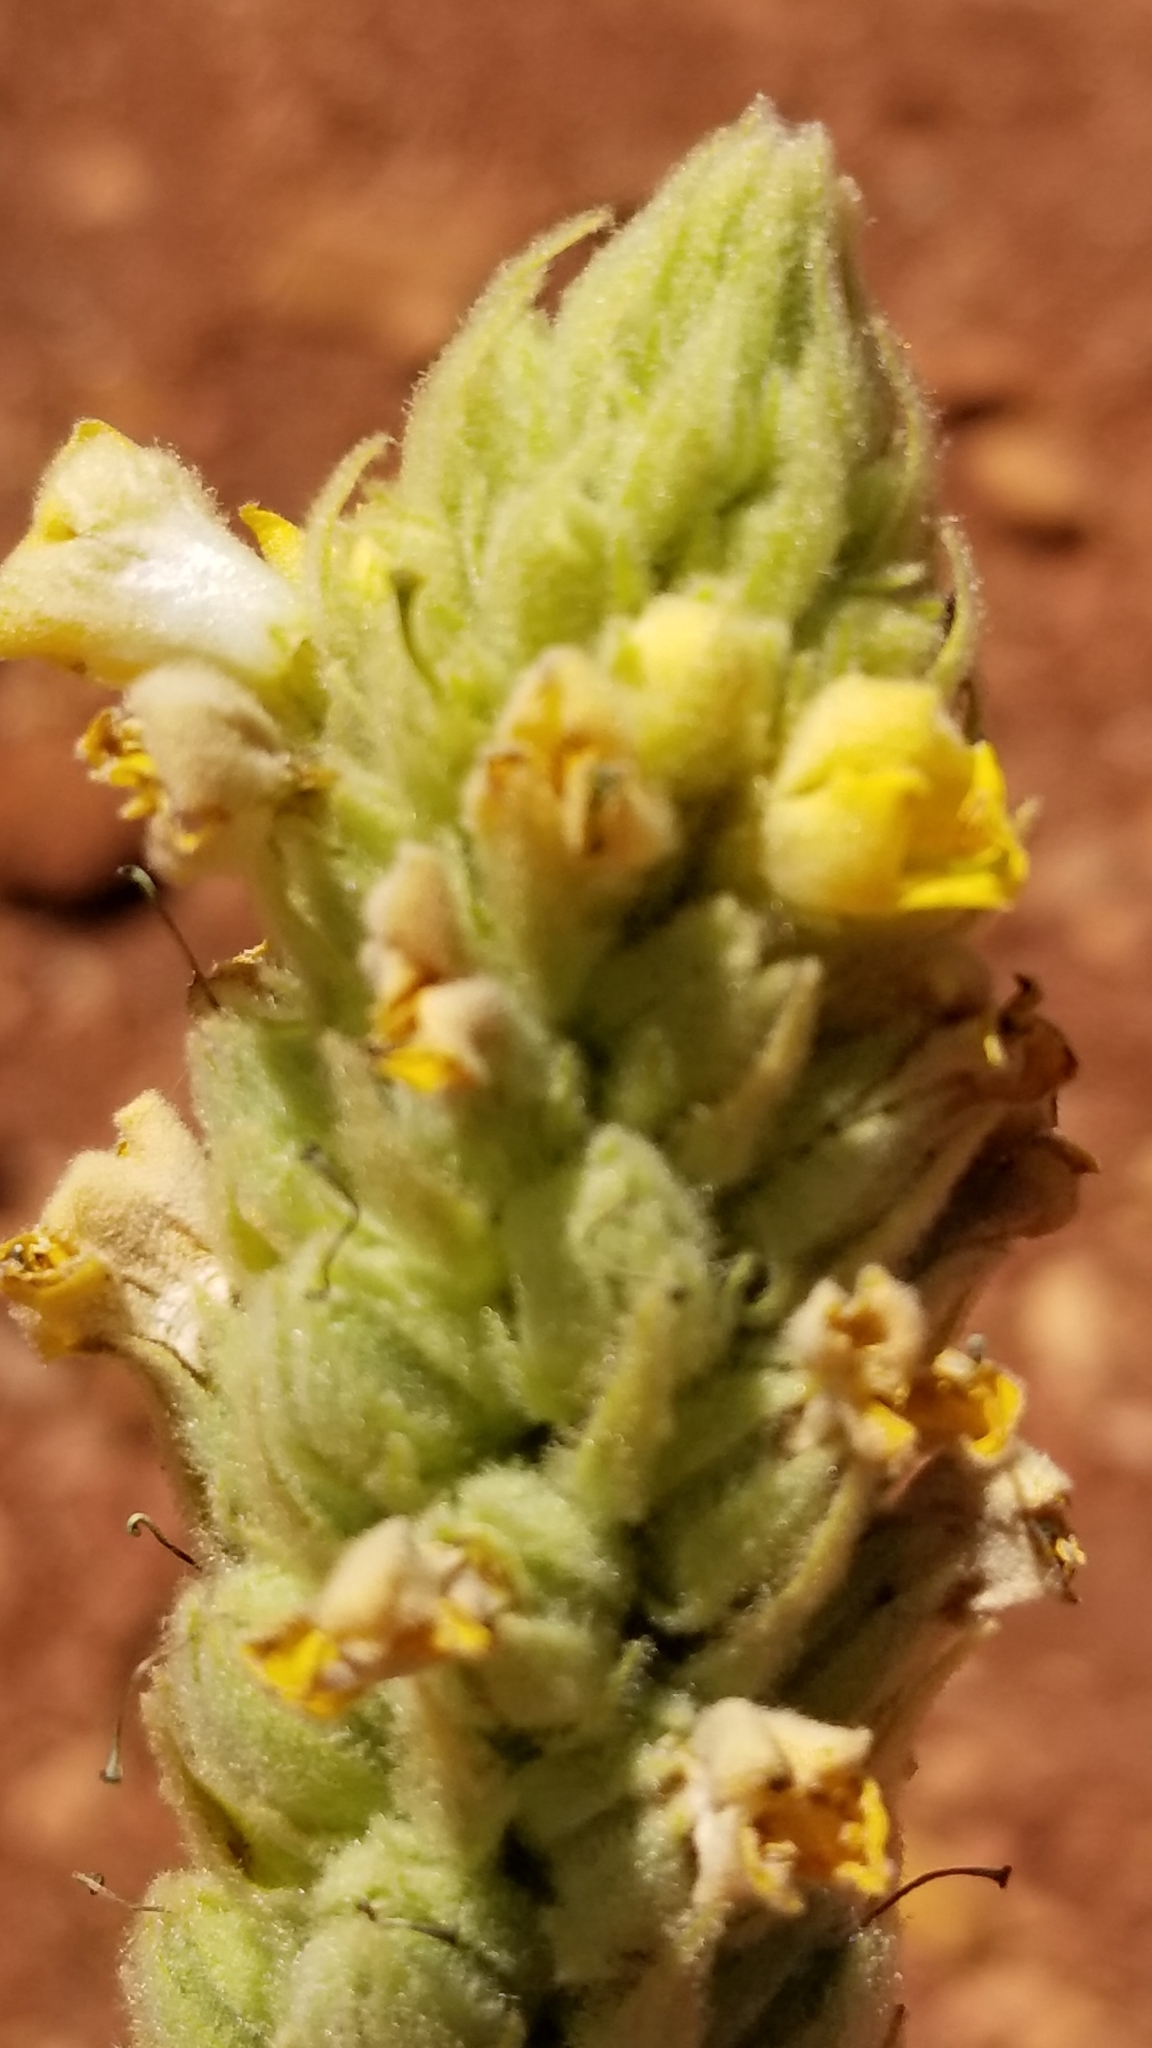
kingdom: Plantae
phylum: Tracheophyta
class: Magnoliopsida
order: Lamiales
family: Scrophulariaceae
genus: Verbascum
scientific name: Verbascum thapsus
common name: Common mullein
